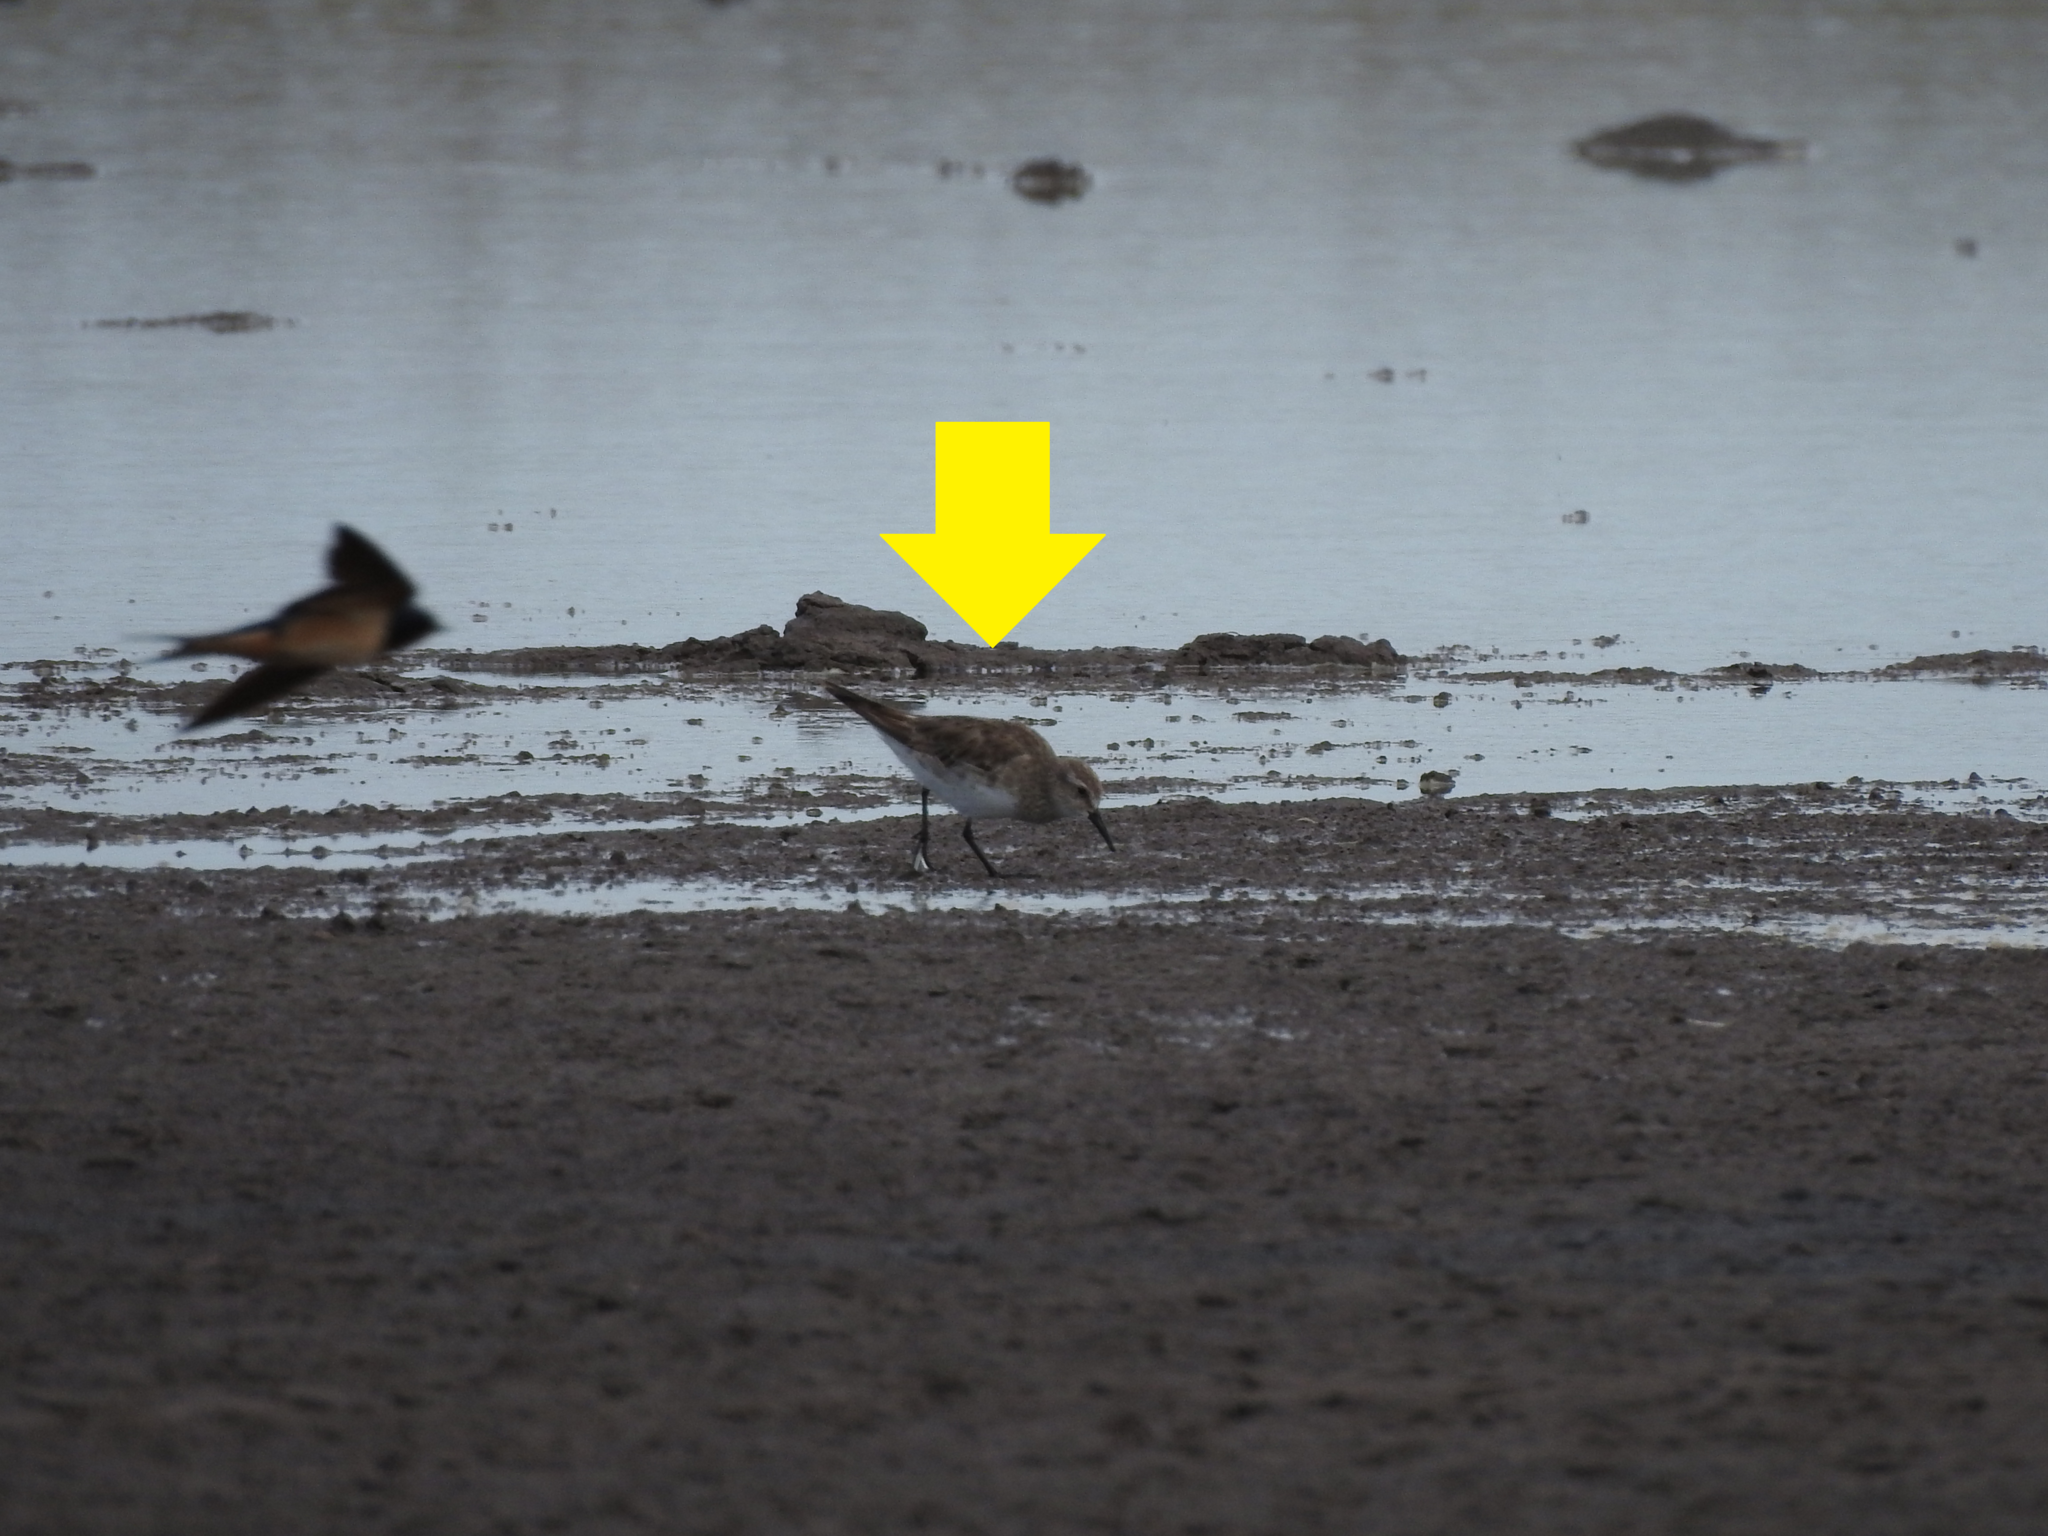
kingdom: Animalia
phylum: Chordata
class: Aves
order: Charadriiformes
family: Scolopacidae
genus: Calidris
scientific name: Calidris fuscicollis
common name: White-rumped sandpiper
